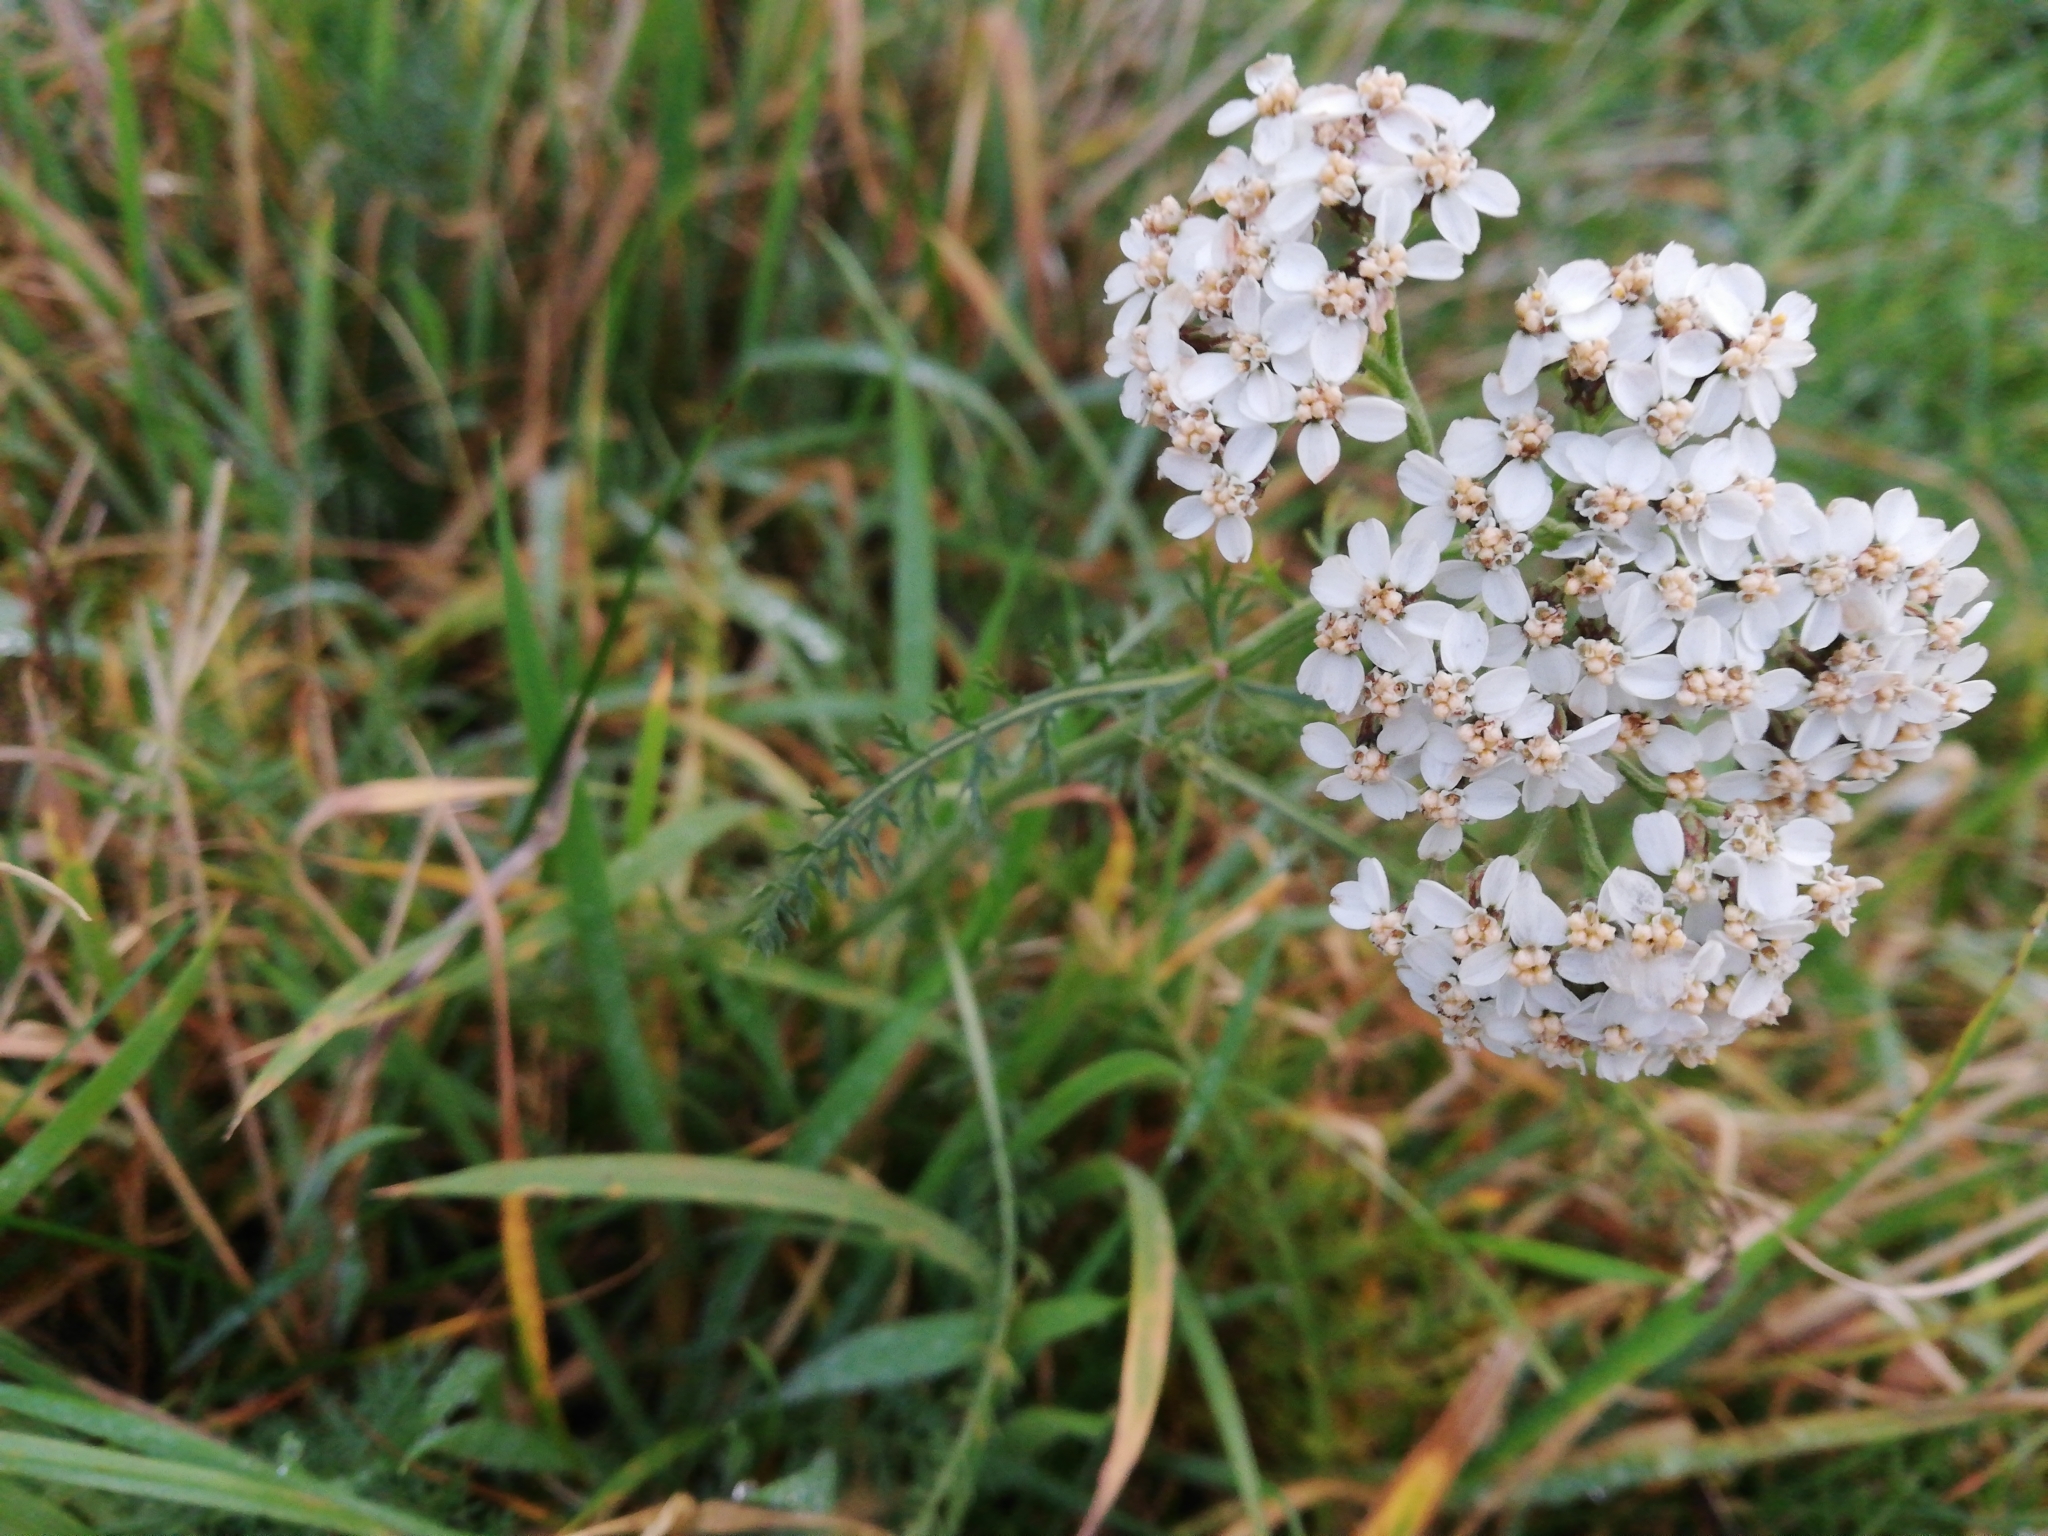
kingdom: Plantae
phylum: Tracheophyta
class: Magnoliopsida
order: Asterales
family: Asteraceae
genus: Achillea
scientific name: Achillea millefolium
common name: Yarrow
